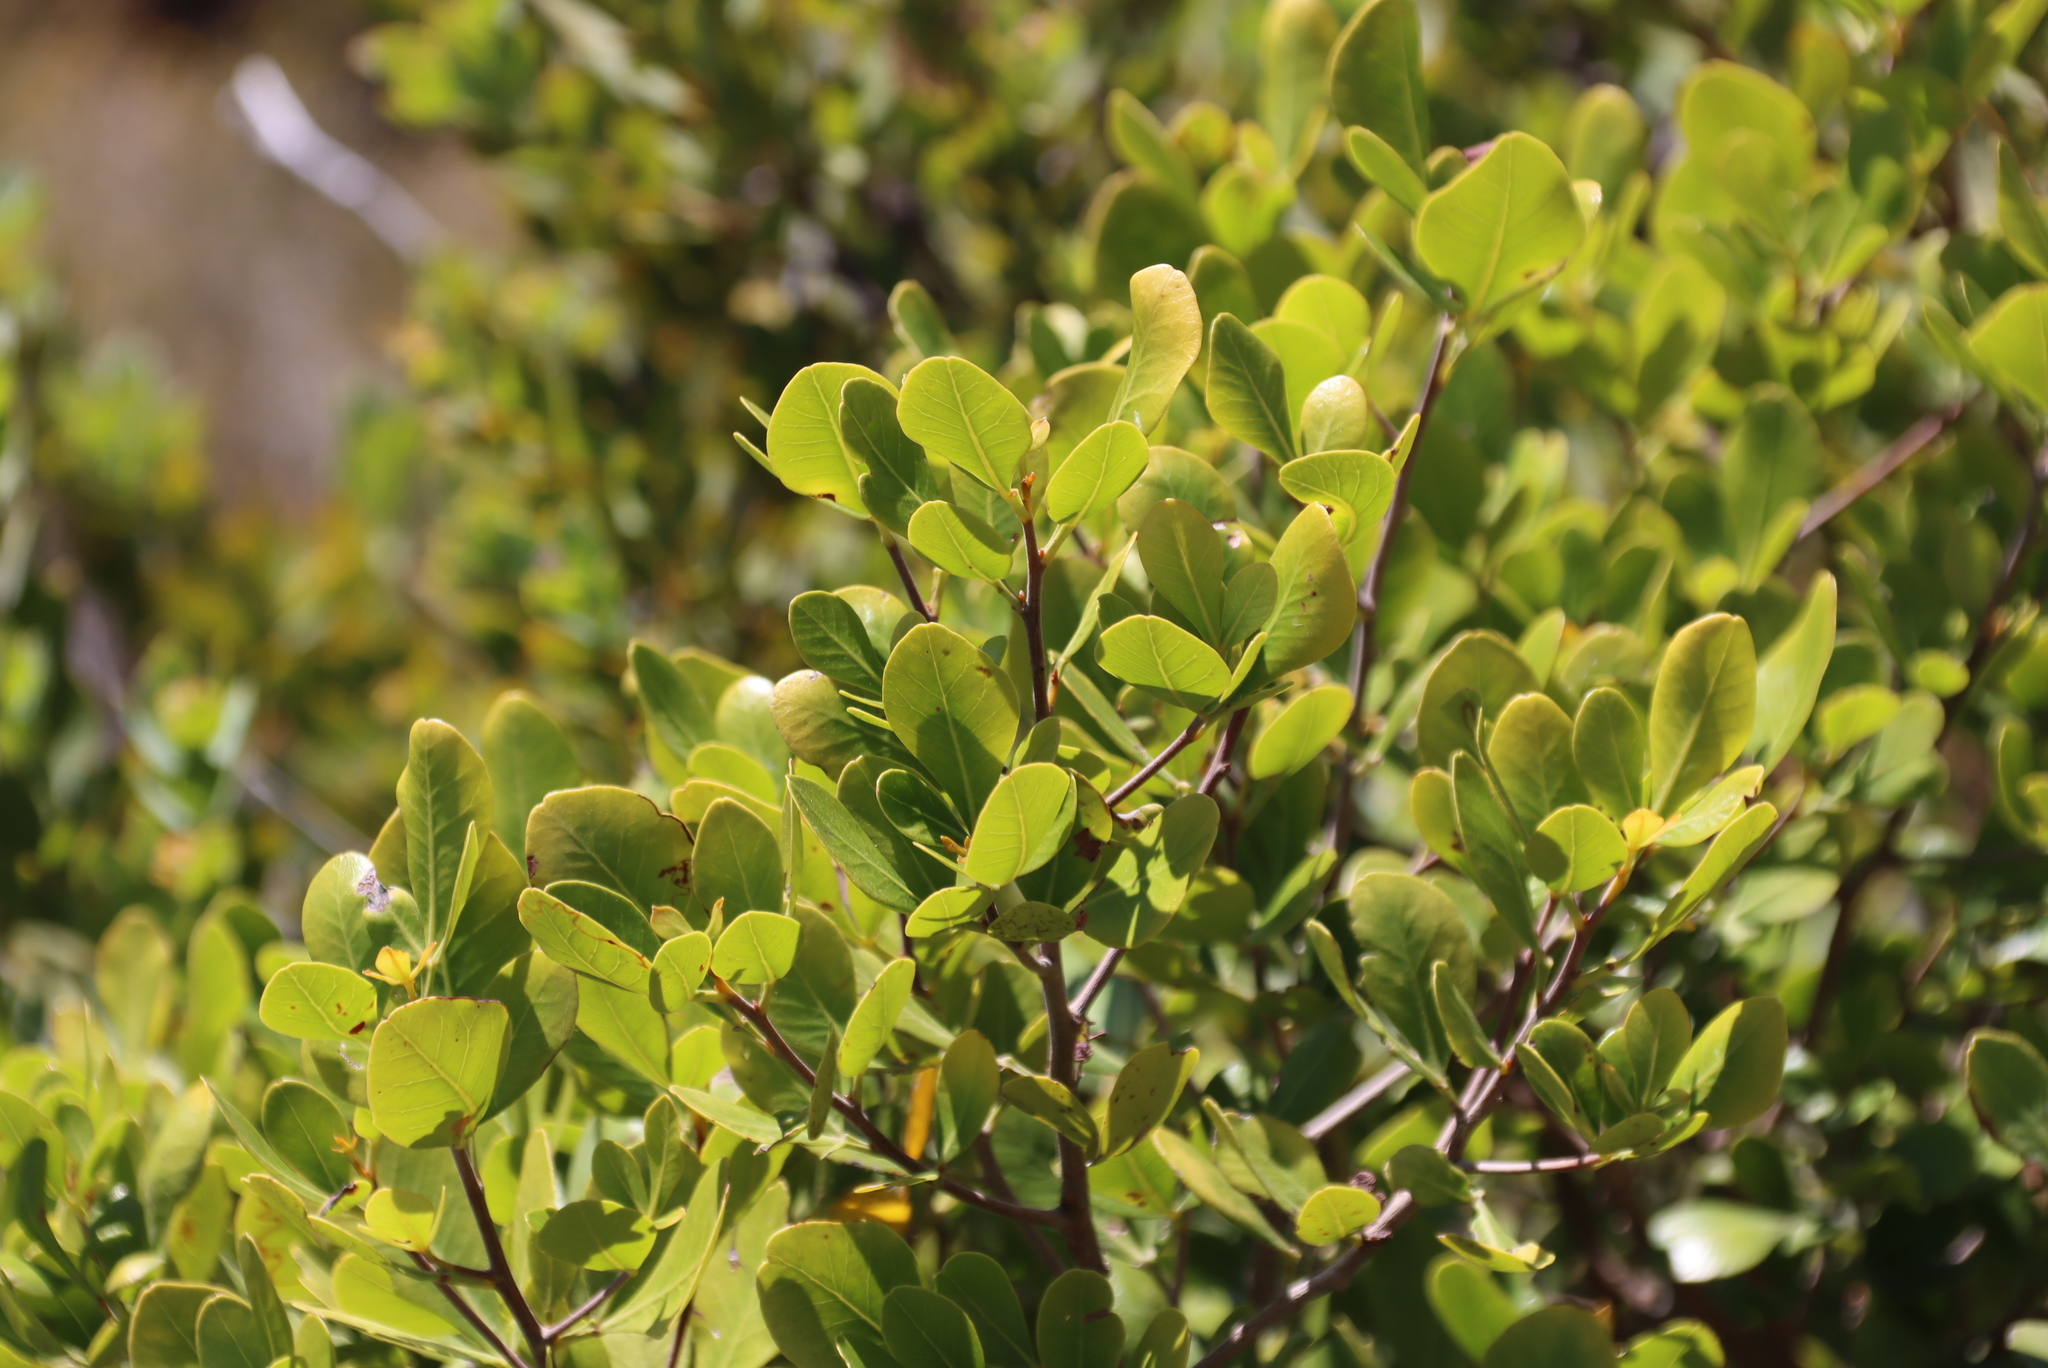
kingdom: Plantae
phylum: Tracheophyta
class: Magnoliopsida
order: Sapindales
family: Anacardiaceae
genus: Searsia
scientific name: Searsia lucida
